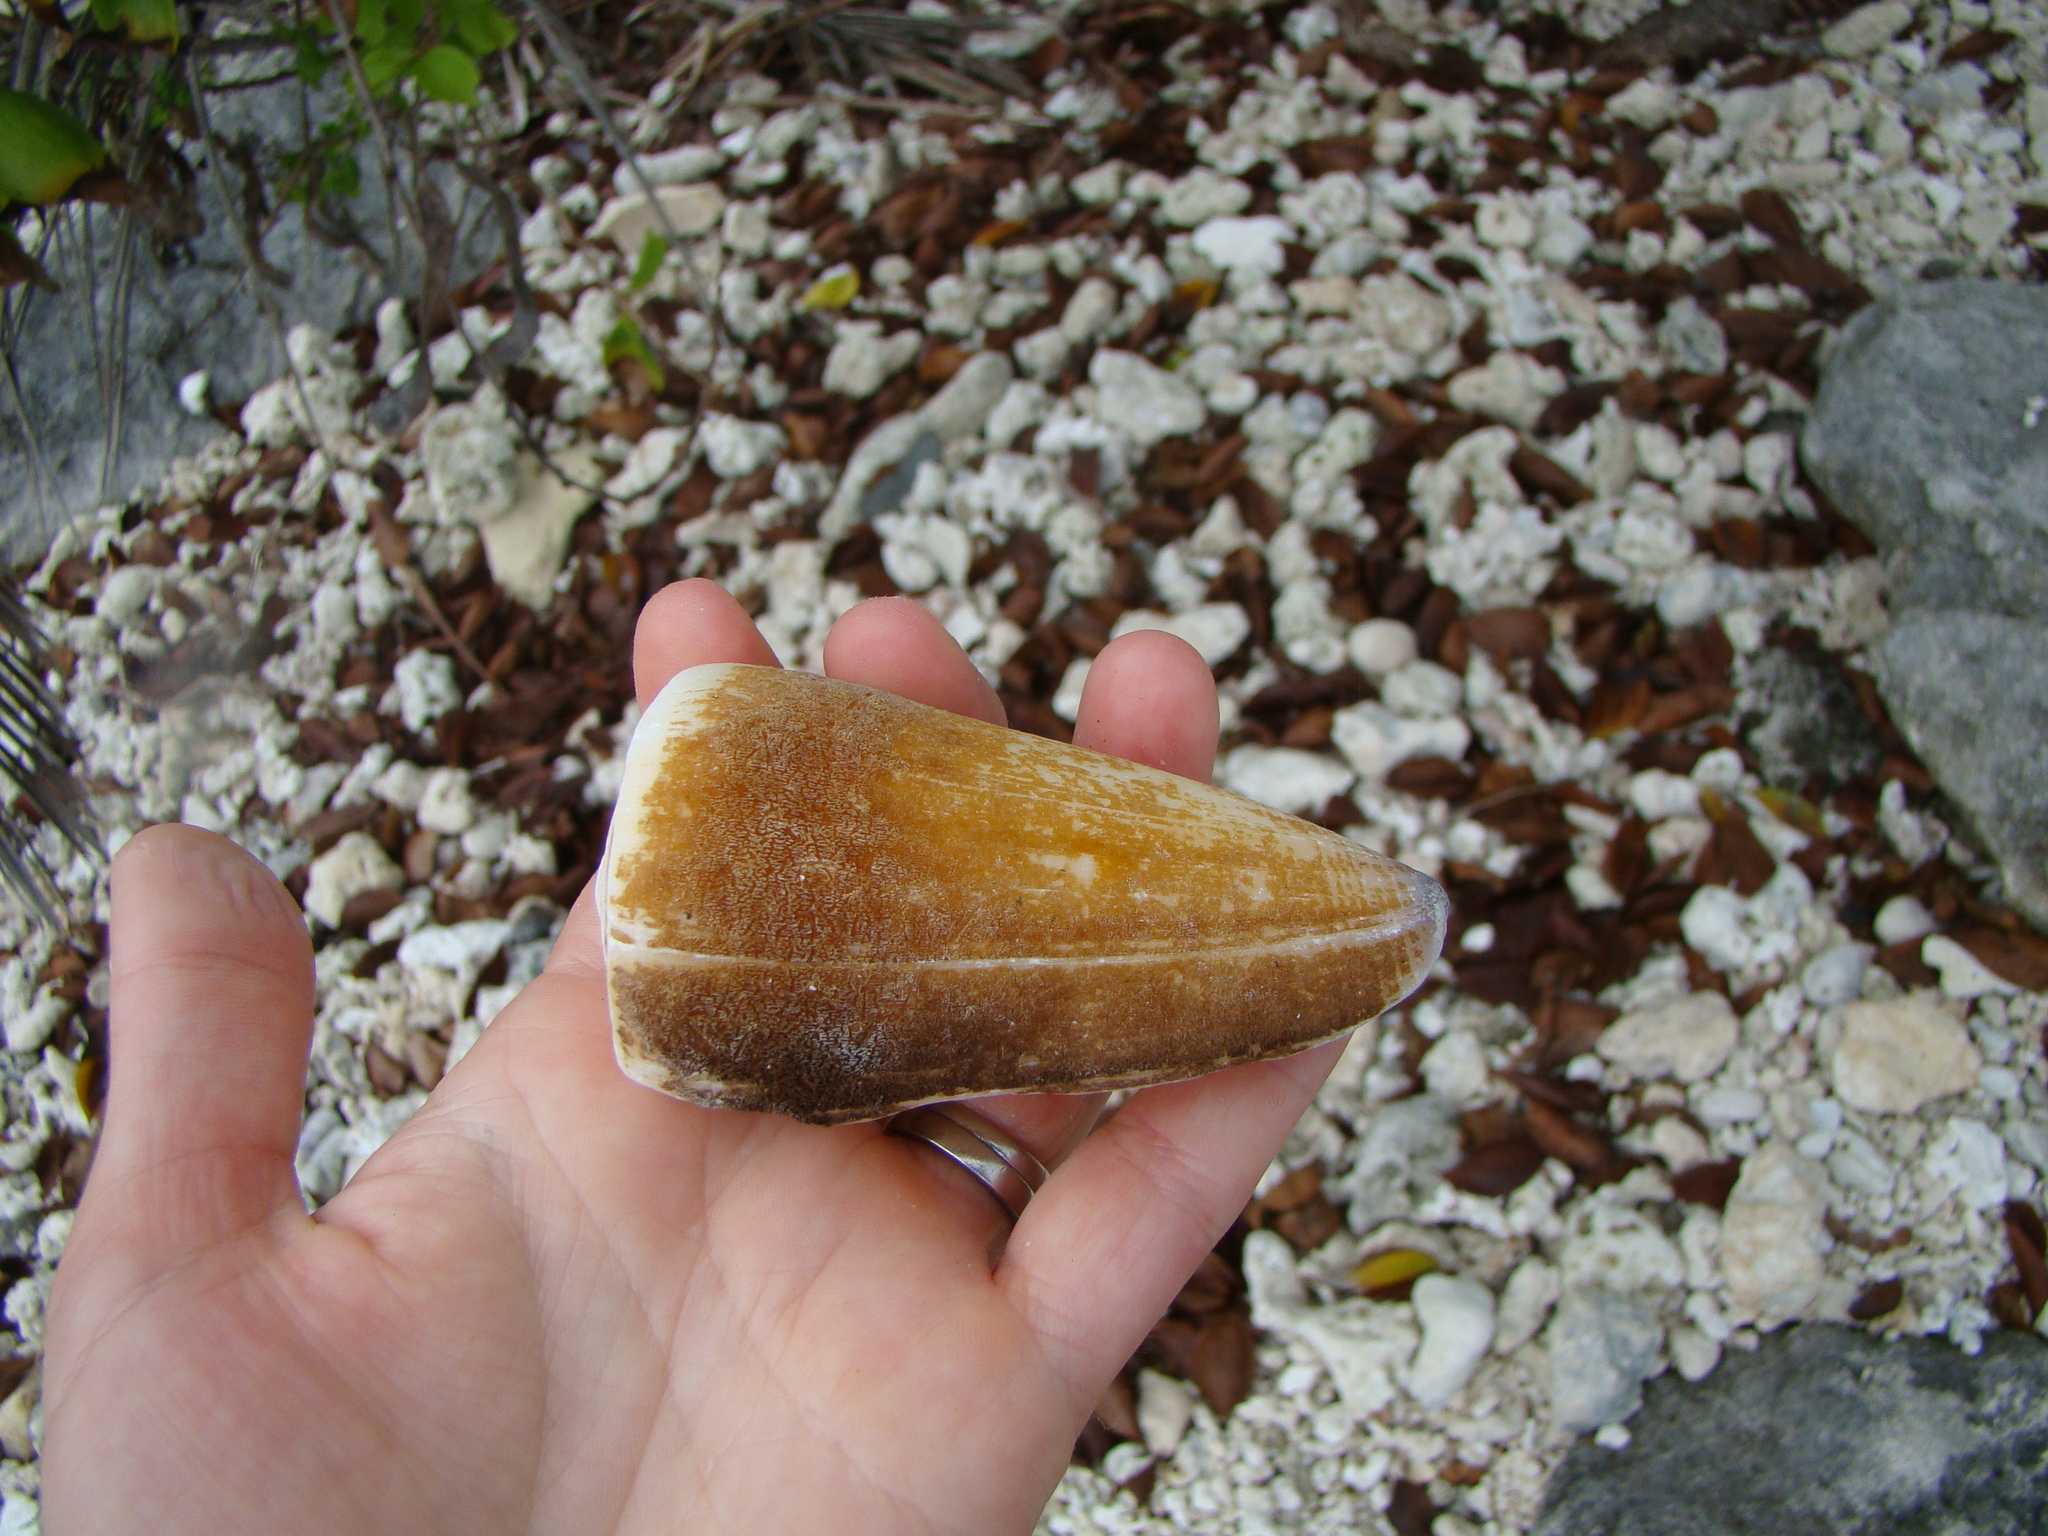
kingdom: Animalia
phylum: Mollusca
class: Gastropoda
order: Neogastropoda
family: Conidae
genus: Conus
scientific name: Conus virgo
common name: Virgin cone
